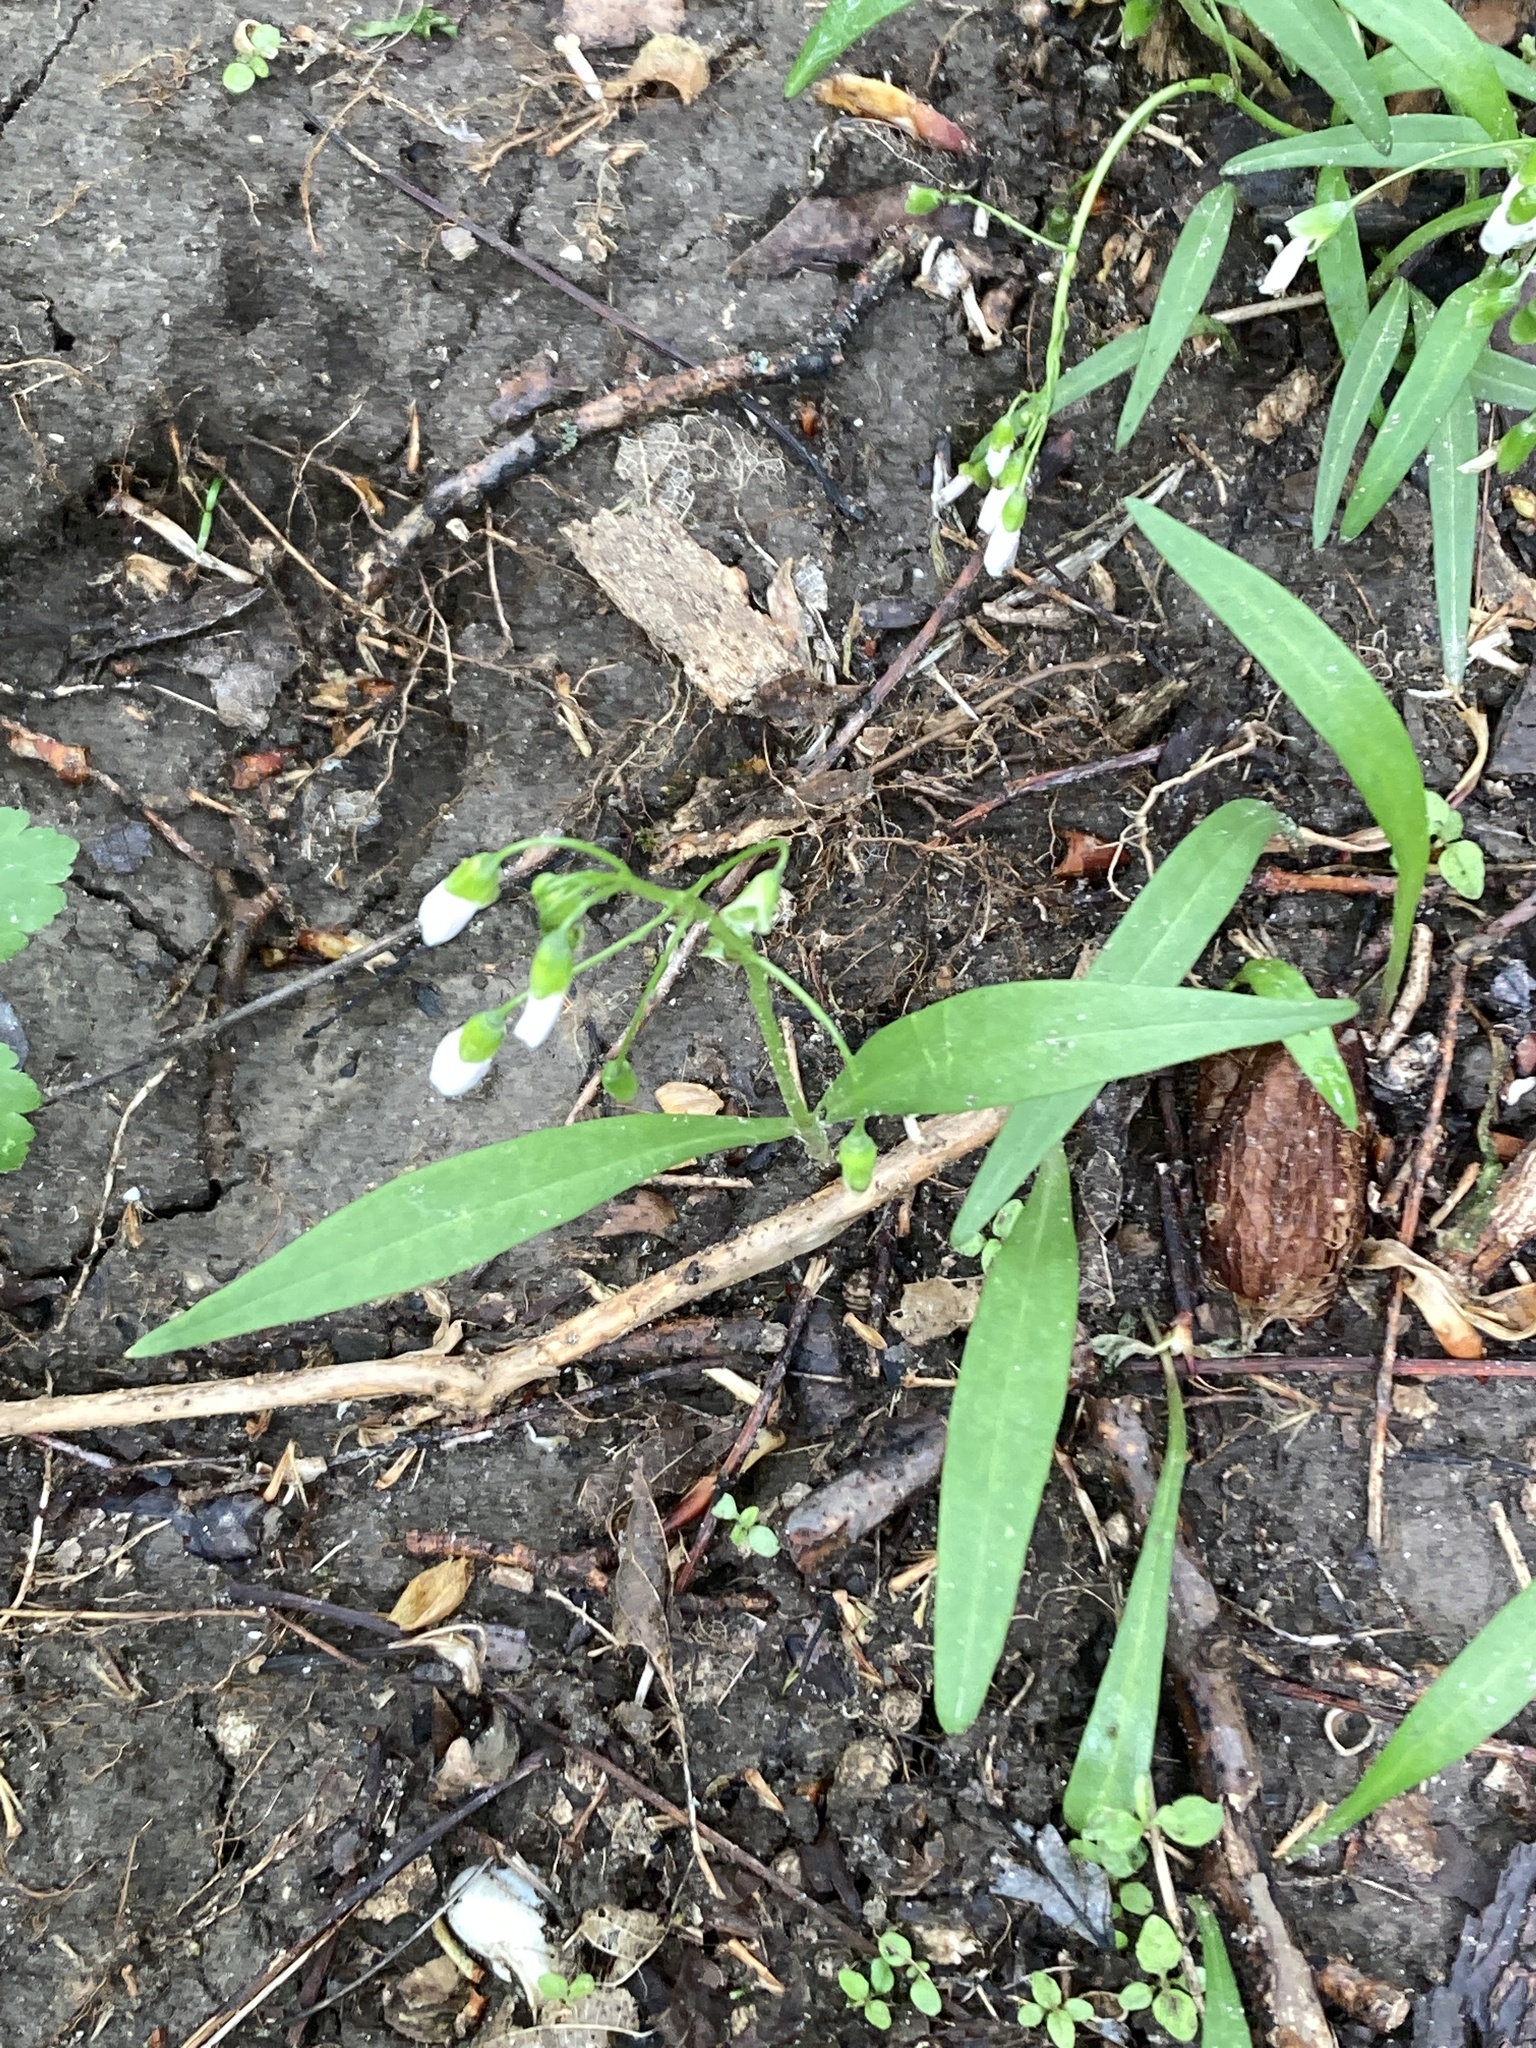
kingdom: Plantae
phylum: Tracheophyta
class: Magnoliopsida
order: Caryophyllales
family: Montiaceae
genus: Claytonia
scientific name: Claytonia virginica
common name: Virginia springbeauty
